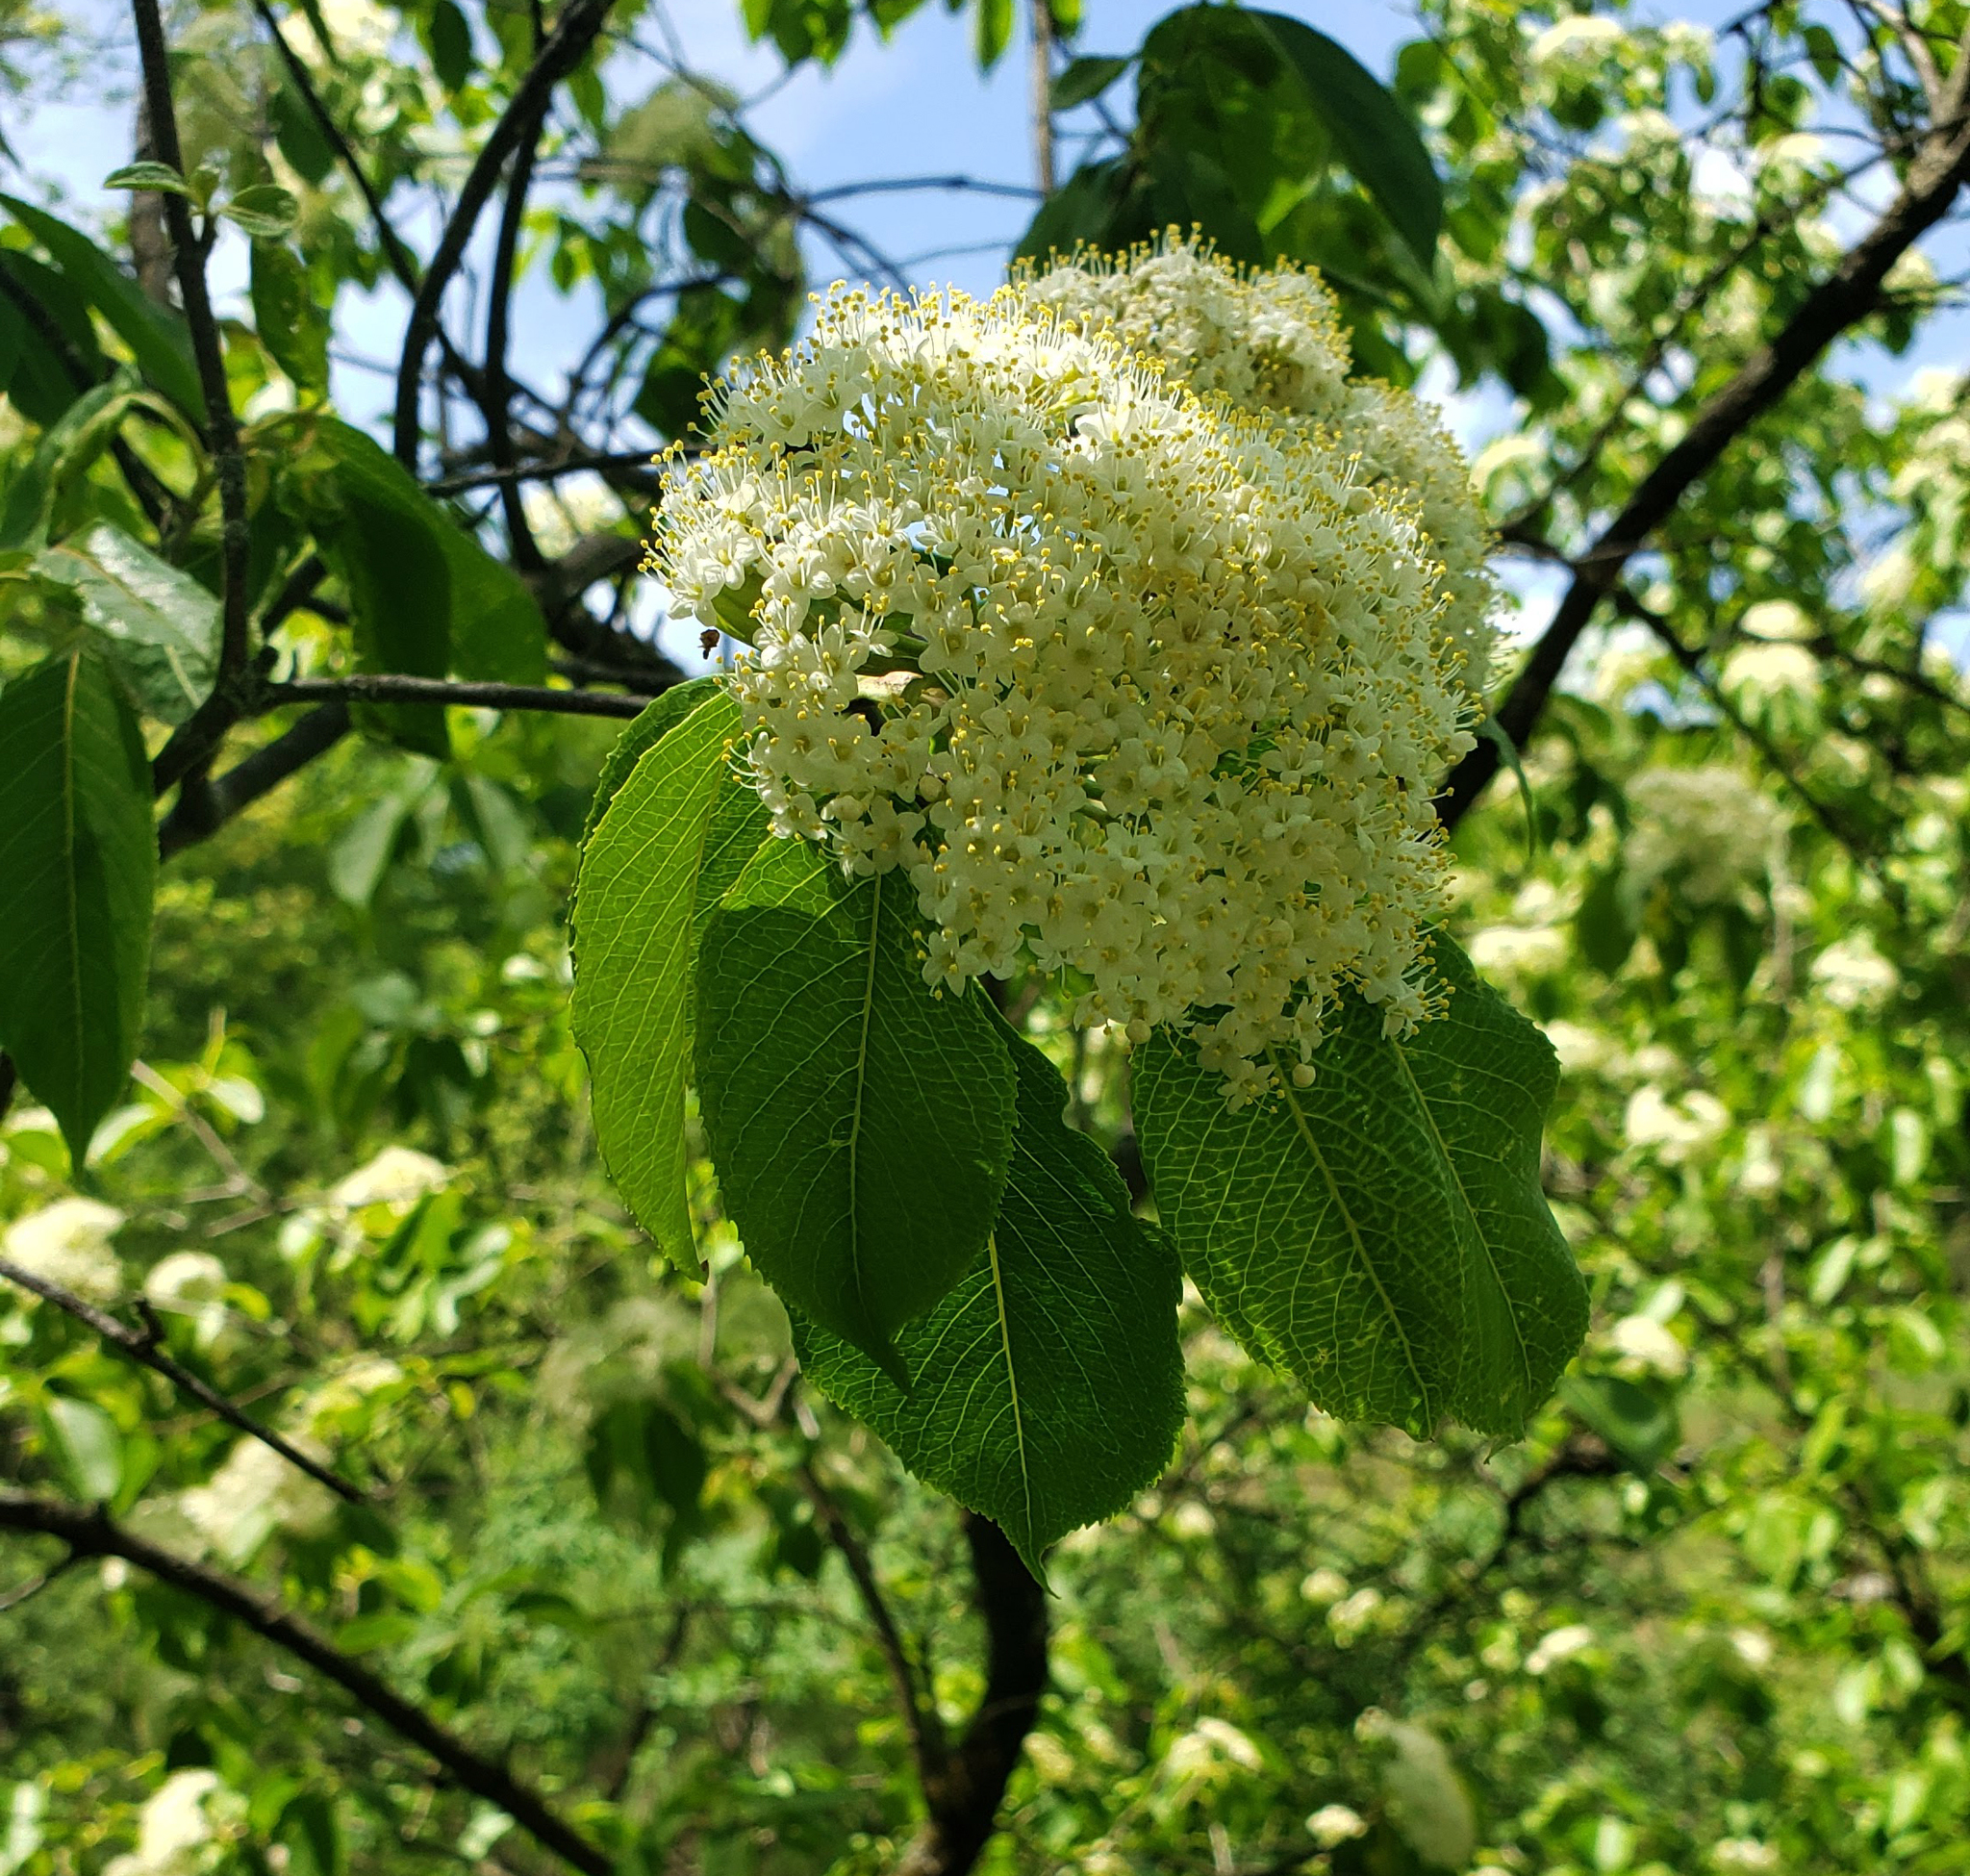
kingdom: Plantae
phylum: Tracheophyta
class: Magnoliopsida
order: Dipsacales
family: Viburnaceae
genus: Viburnum
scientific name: Viburnum lentago
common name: Black haw
